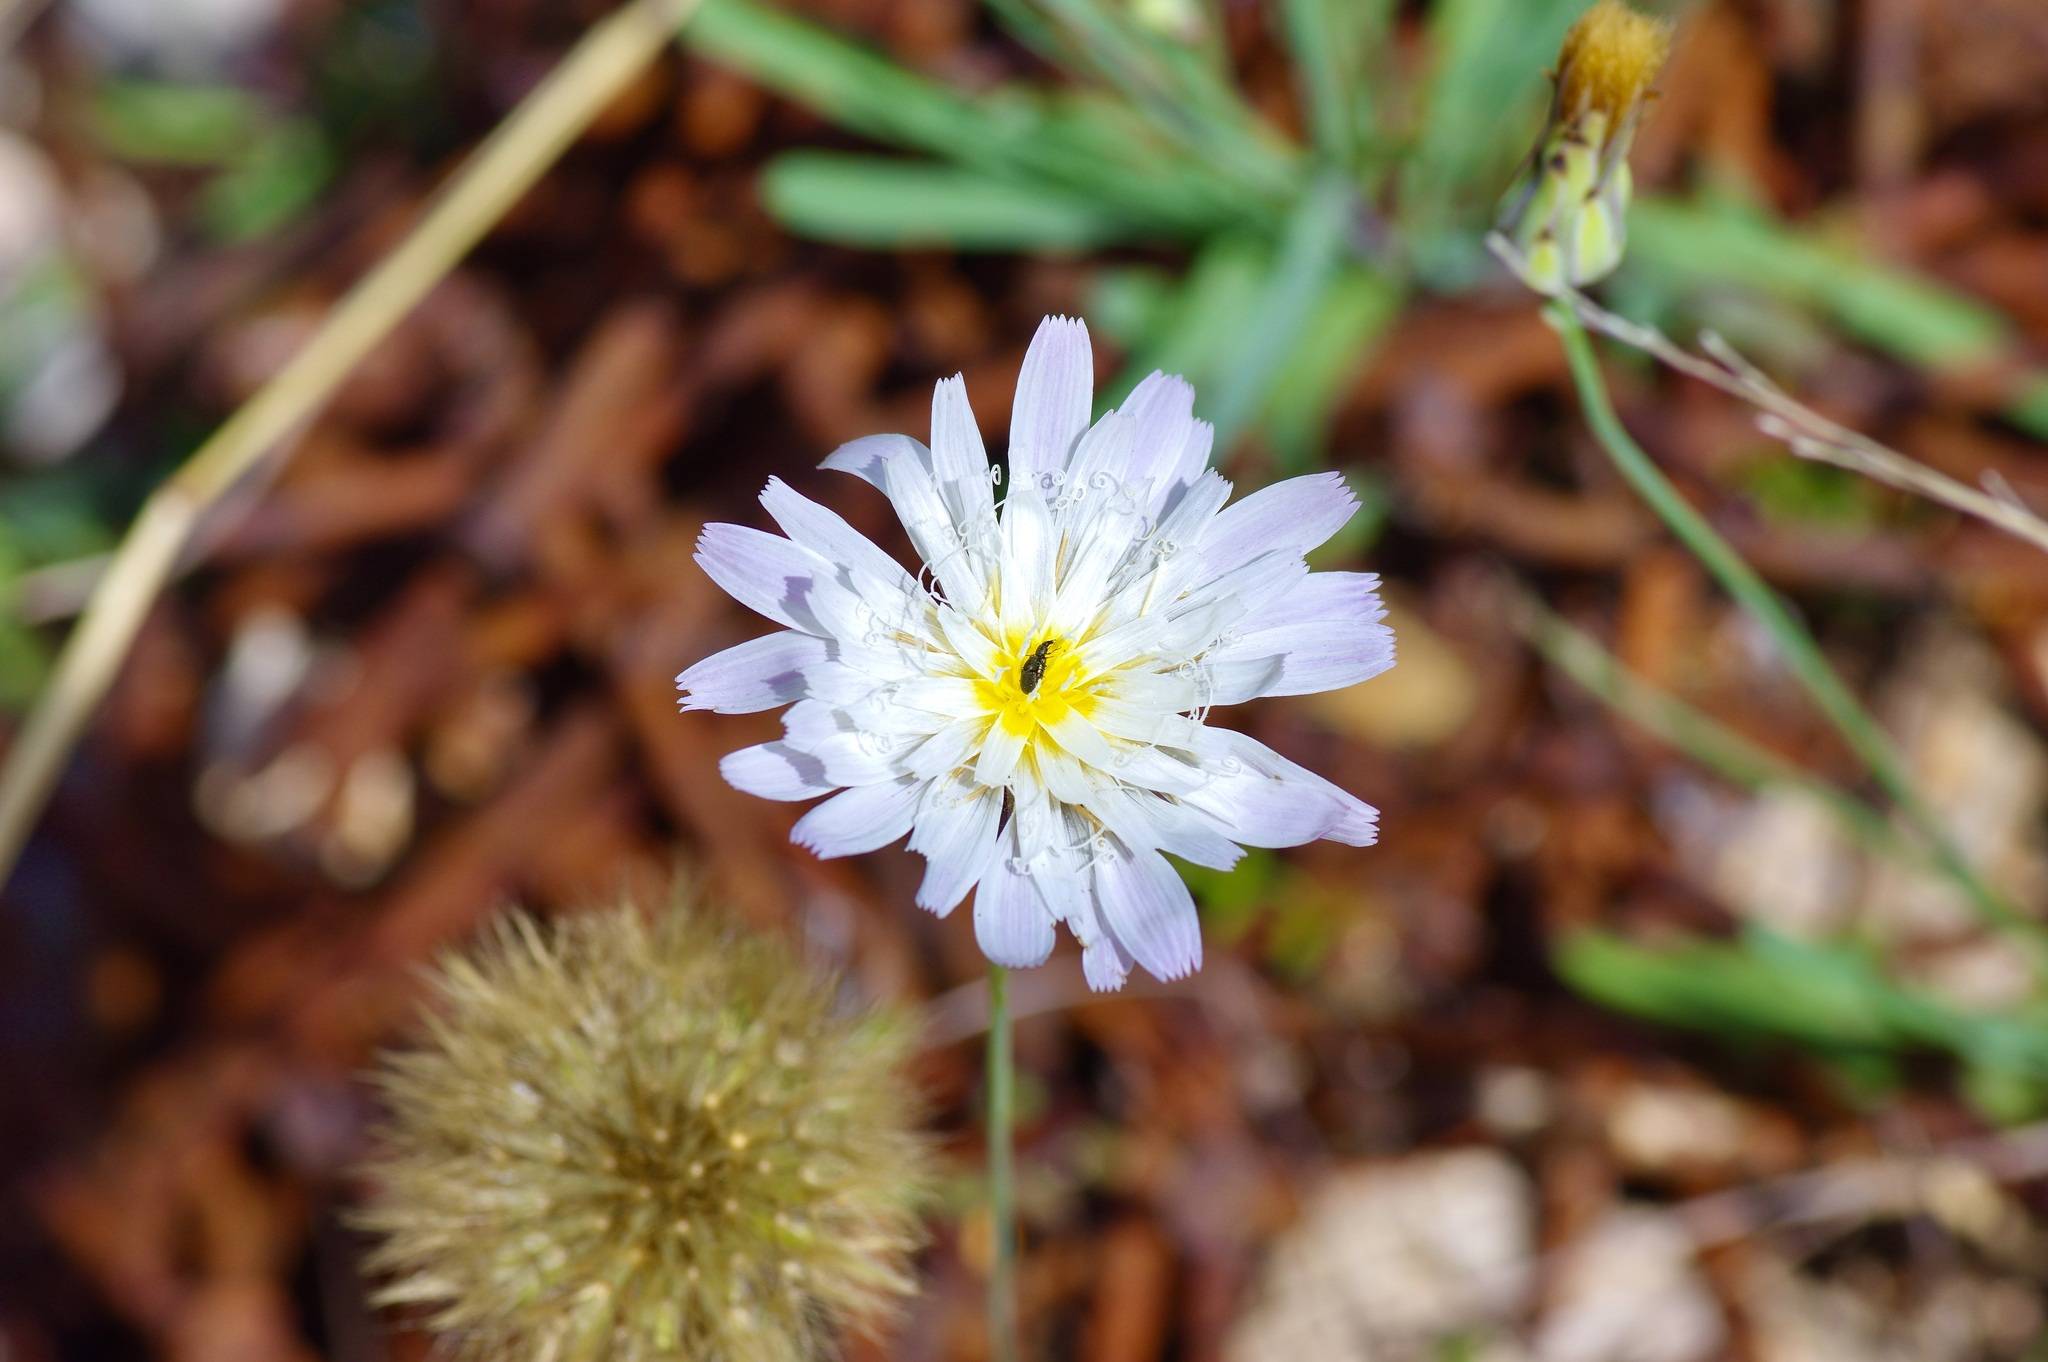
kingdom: Plantae
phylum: Tracheophyta
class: Magnoliopsida
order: Asterales
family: Asteraceae
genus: Pinaropappus
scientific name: Pinaropappus roseus
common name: Rock-lettuce
